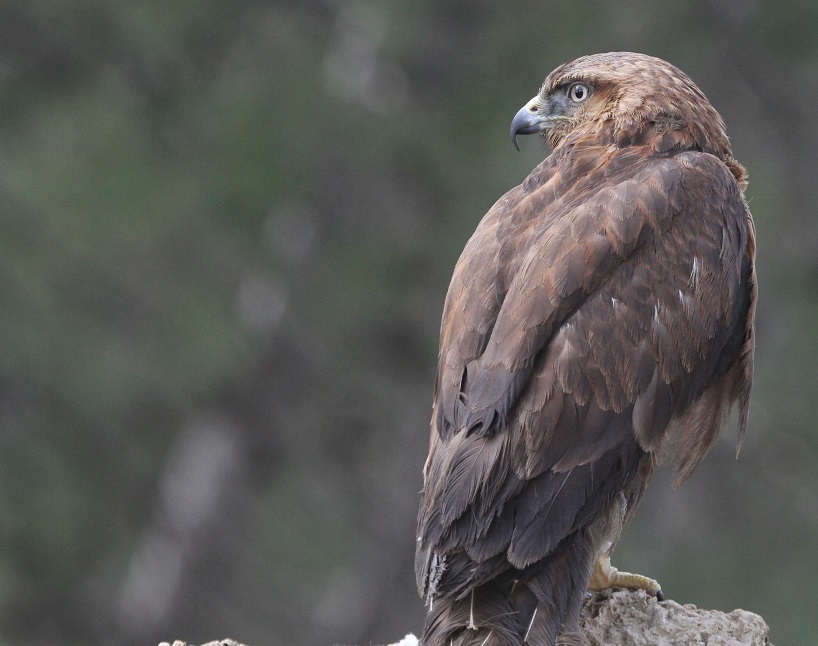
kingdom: Animalia
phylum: Chordata
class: Aves
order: Accipitriformes
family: Accipitridae
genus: Milvus
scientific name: Milvus migrans
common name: Black kite
